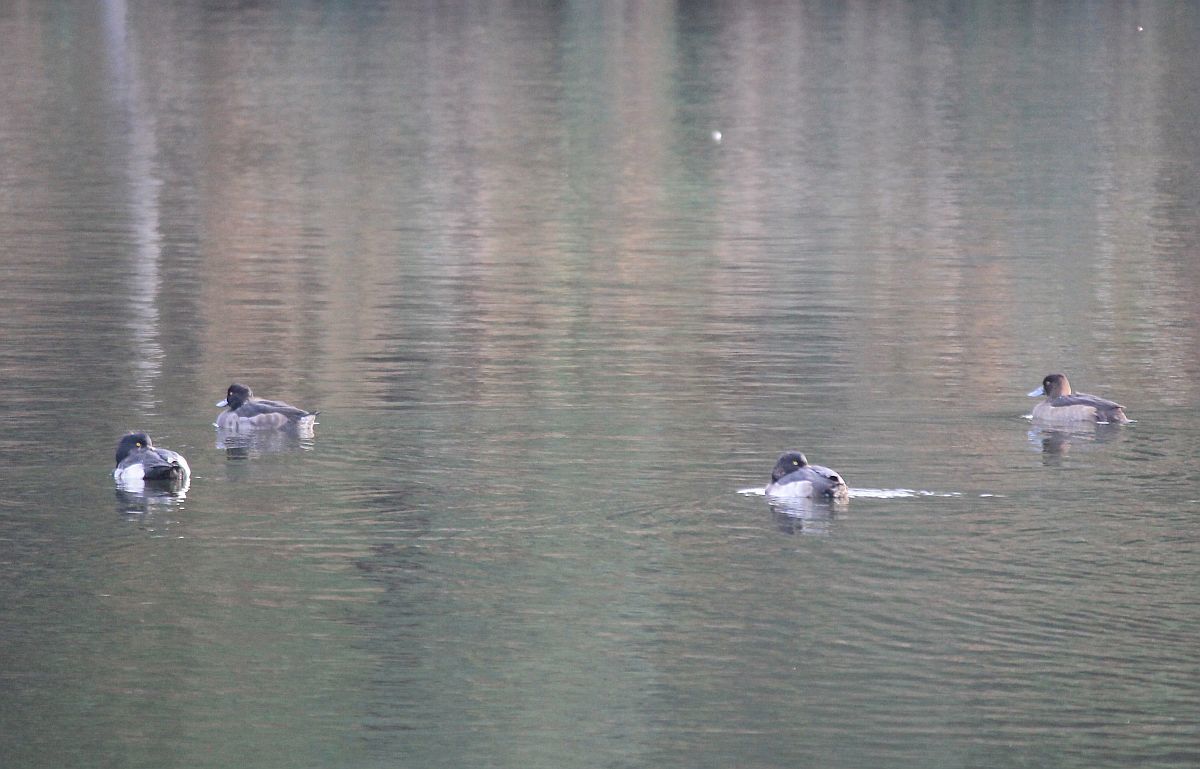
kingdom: Animalia
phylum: Chordata
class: Aves
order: Anseriformes
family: Anatidae
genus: Aythya
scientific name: Aythya fuligula
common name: Tufted duck
